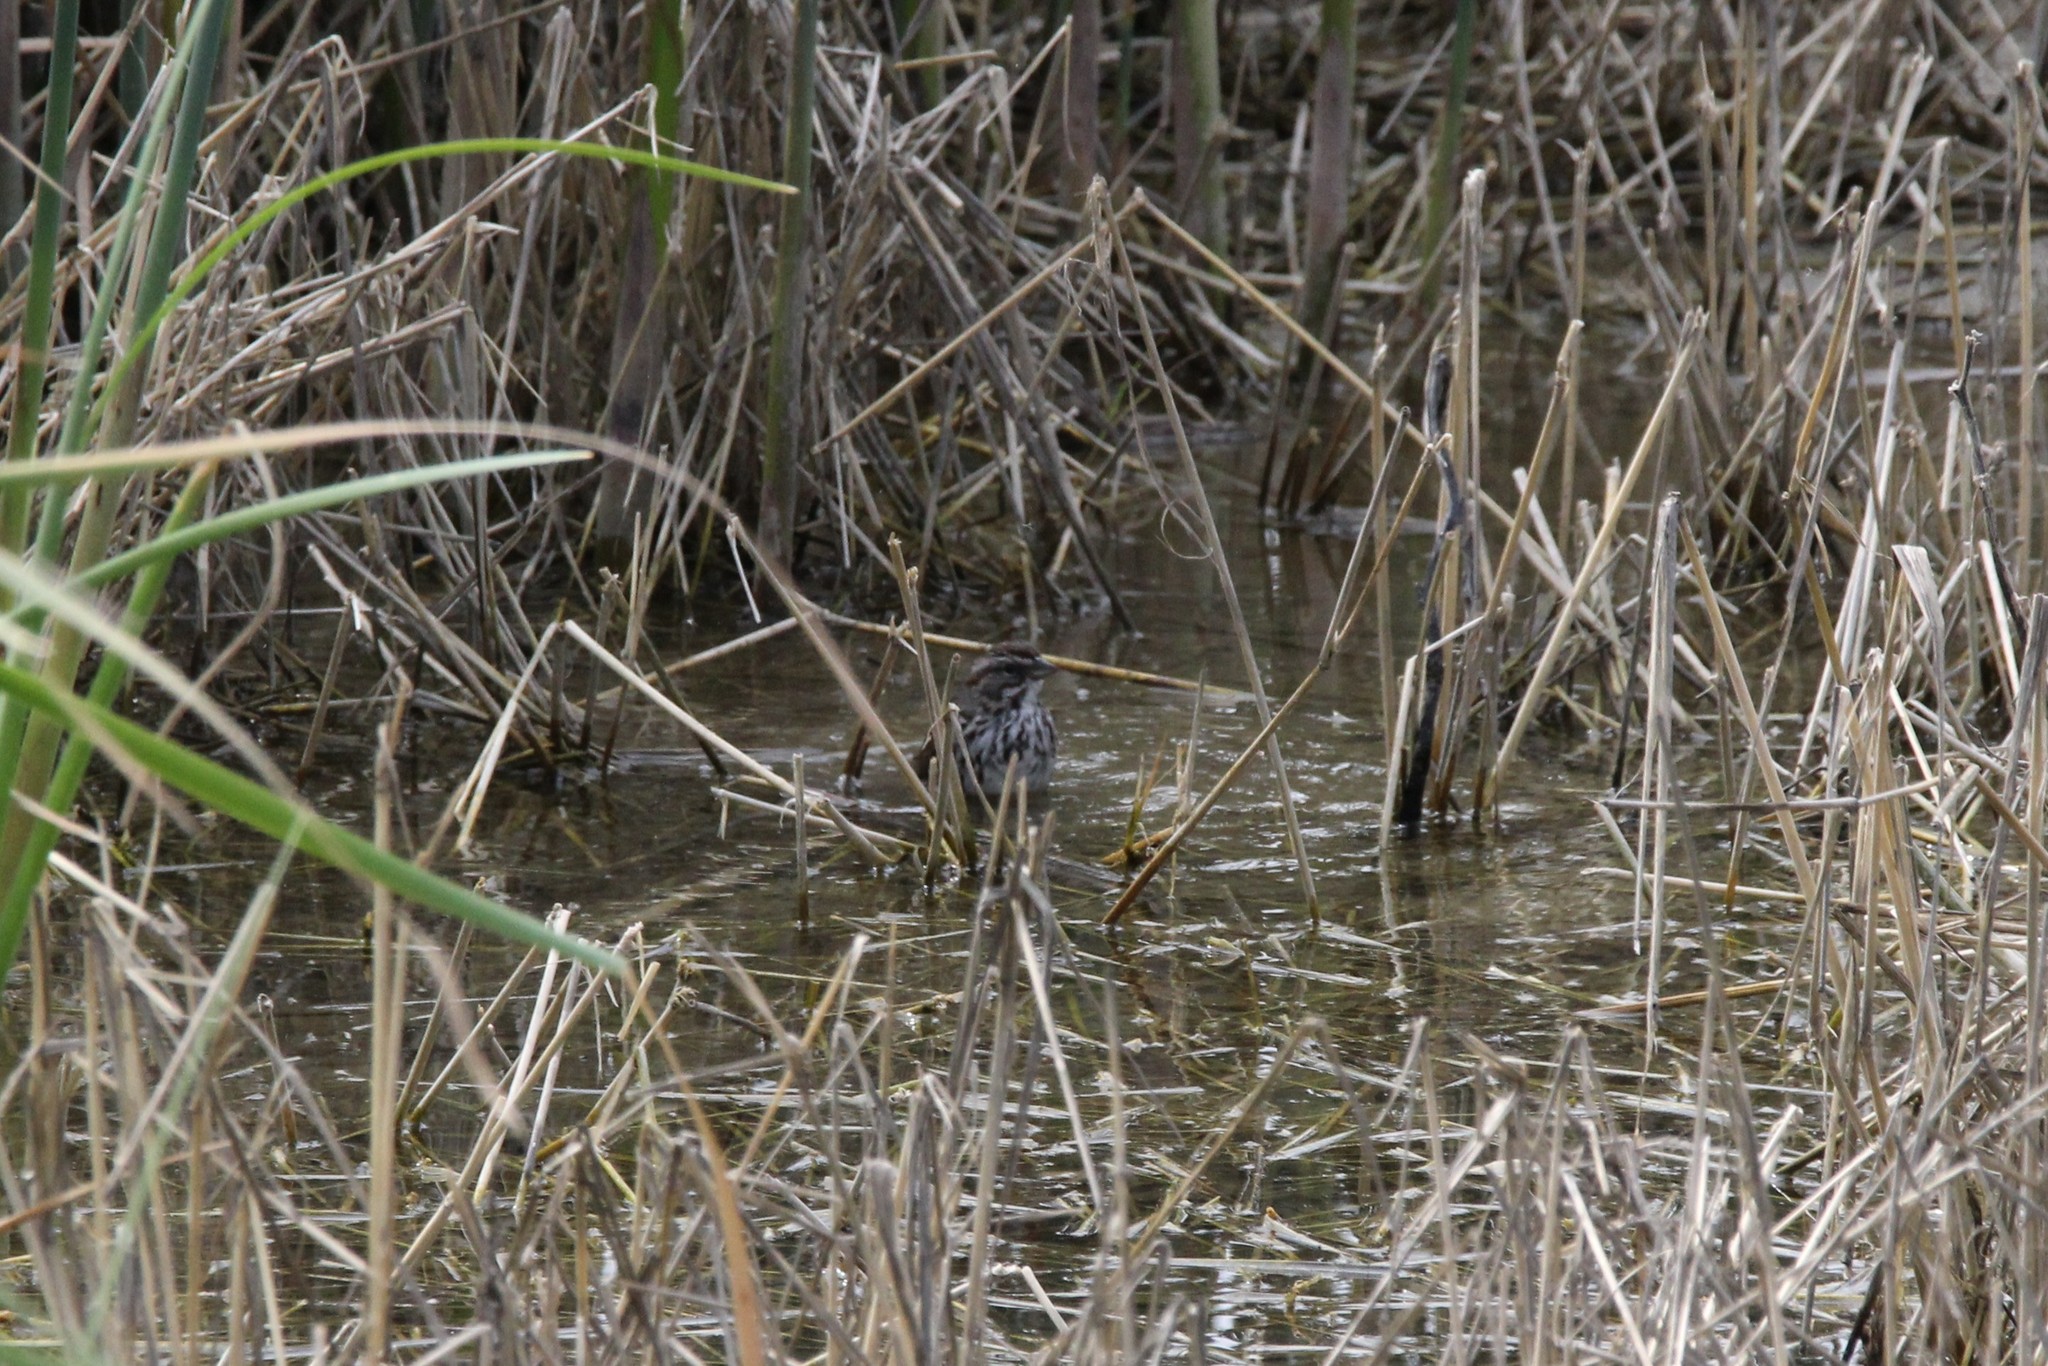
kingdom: Animalia
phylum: Chordata
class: Aves
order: Passeriformes
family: Passerellidae
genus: Melospiza
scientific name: Melospiza melodia
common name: Song sparrow
